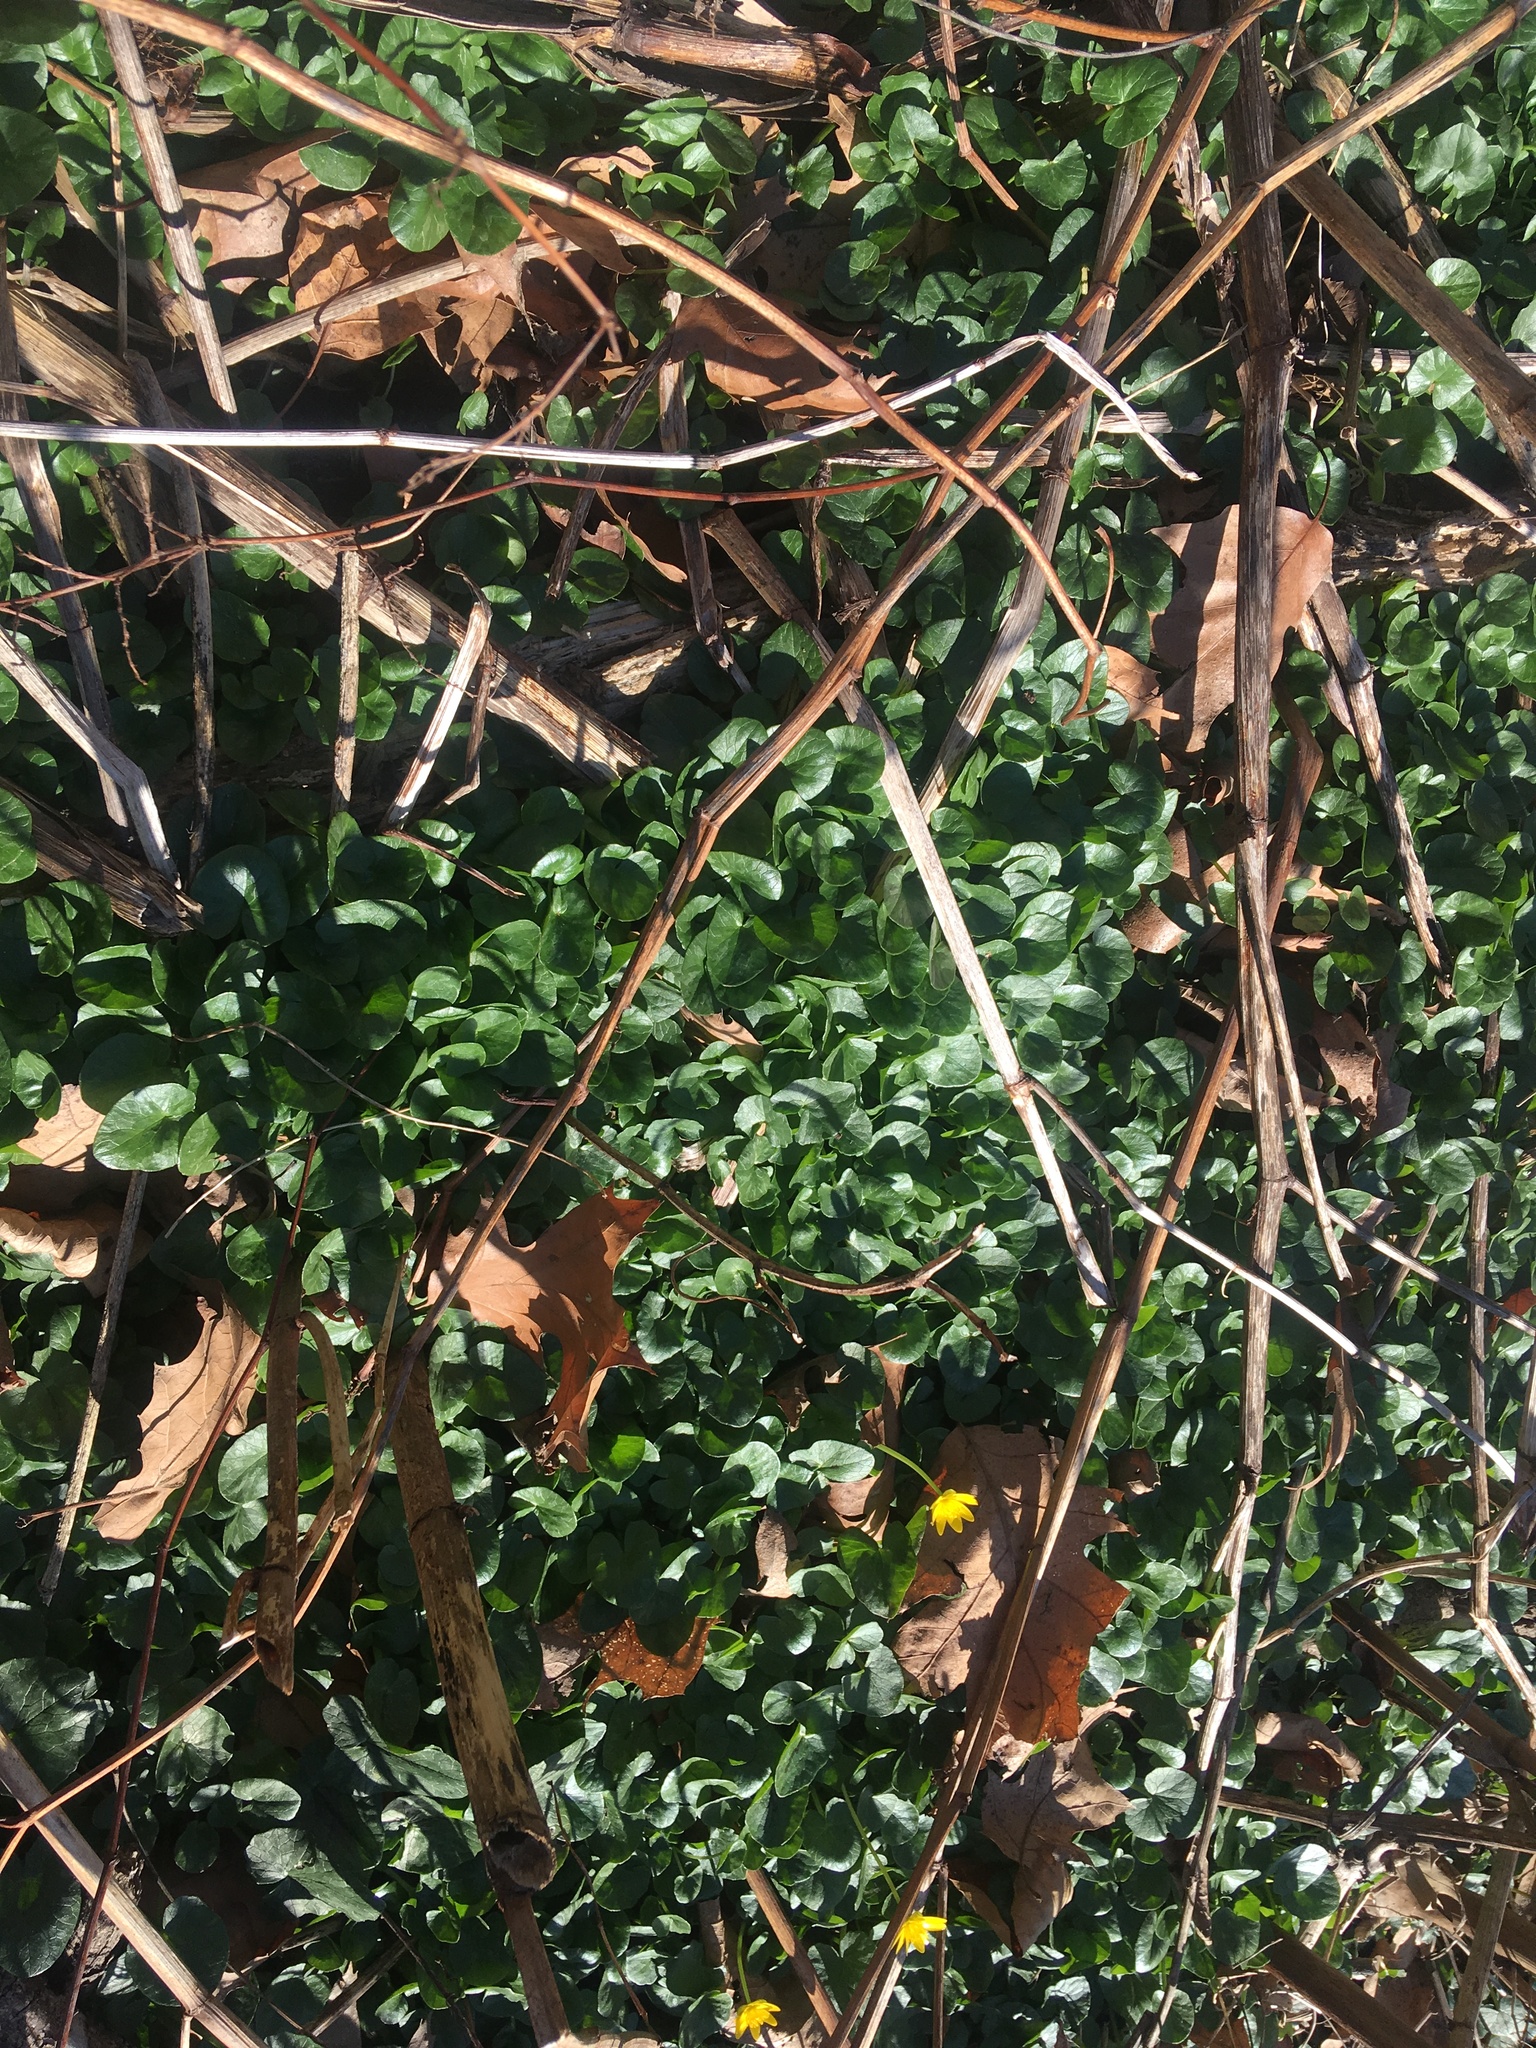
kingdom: Plantae
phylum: Tracheophyta
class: Magnoliopsida
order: Ranunculales
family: Ranunculaceae
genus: Ficaria
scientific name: Ficaria verna
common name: Lesser celandine
